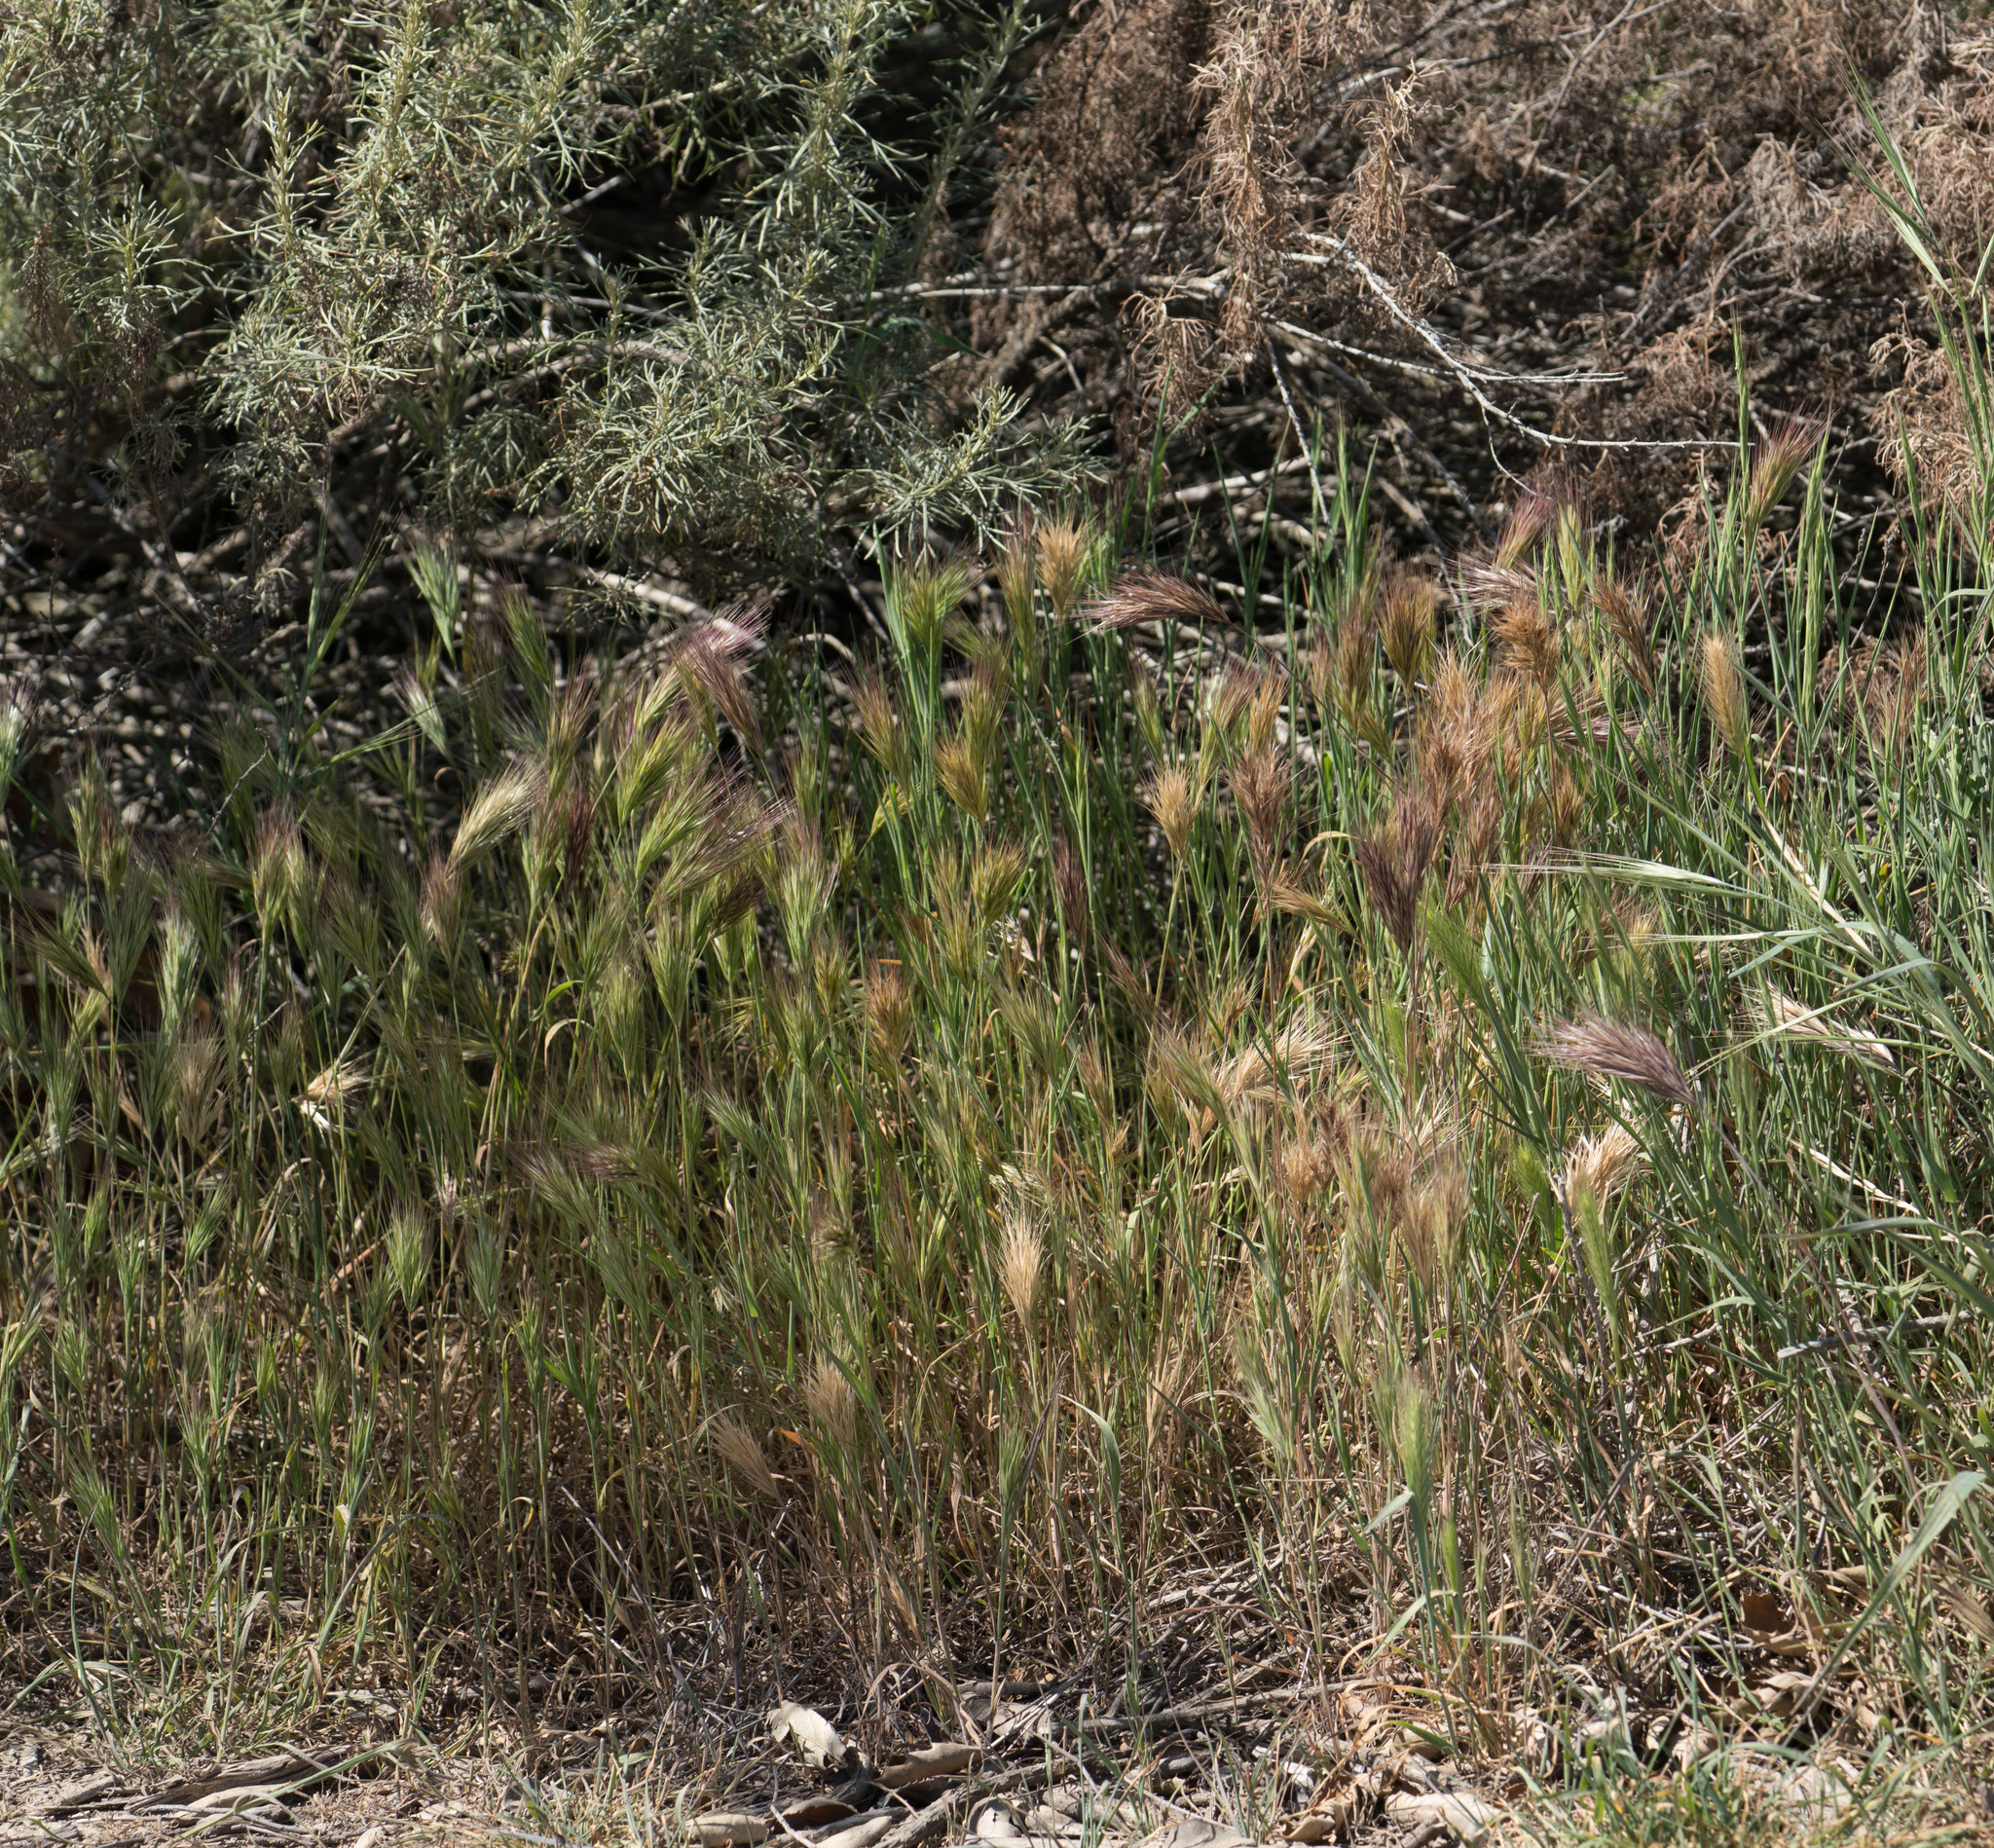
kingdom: Plantae
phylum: Tracheophyta
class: Liliopsida
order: Poales
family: Poaceae
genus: Bromus
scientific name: Bromus rubens
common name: Red brome
